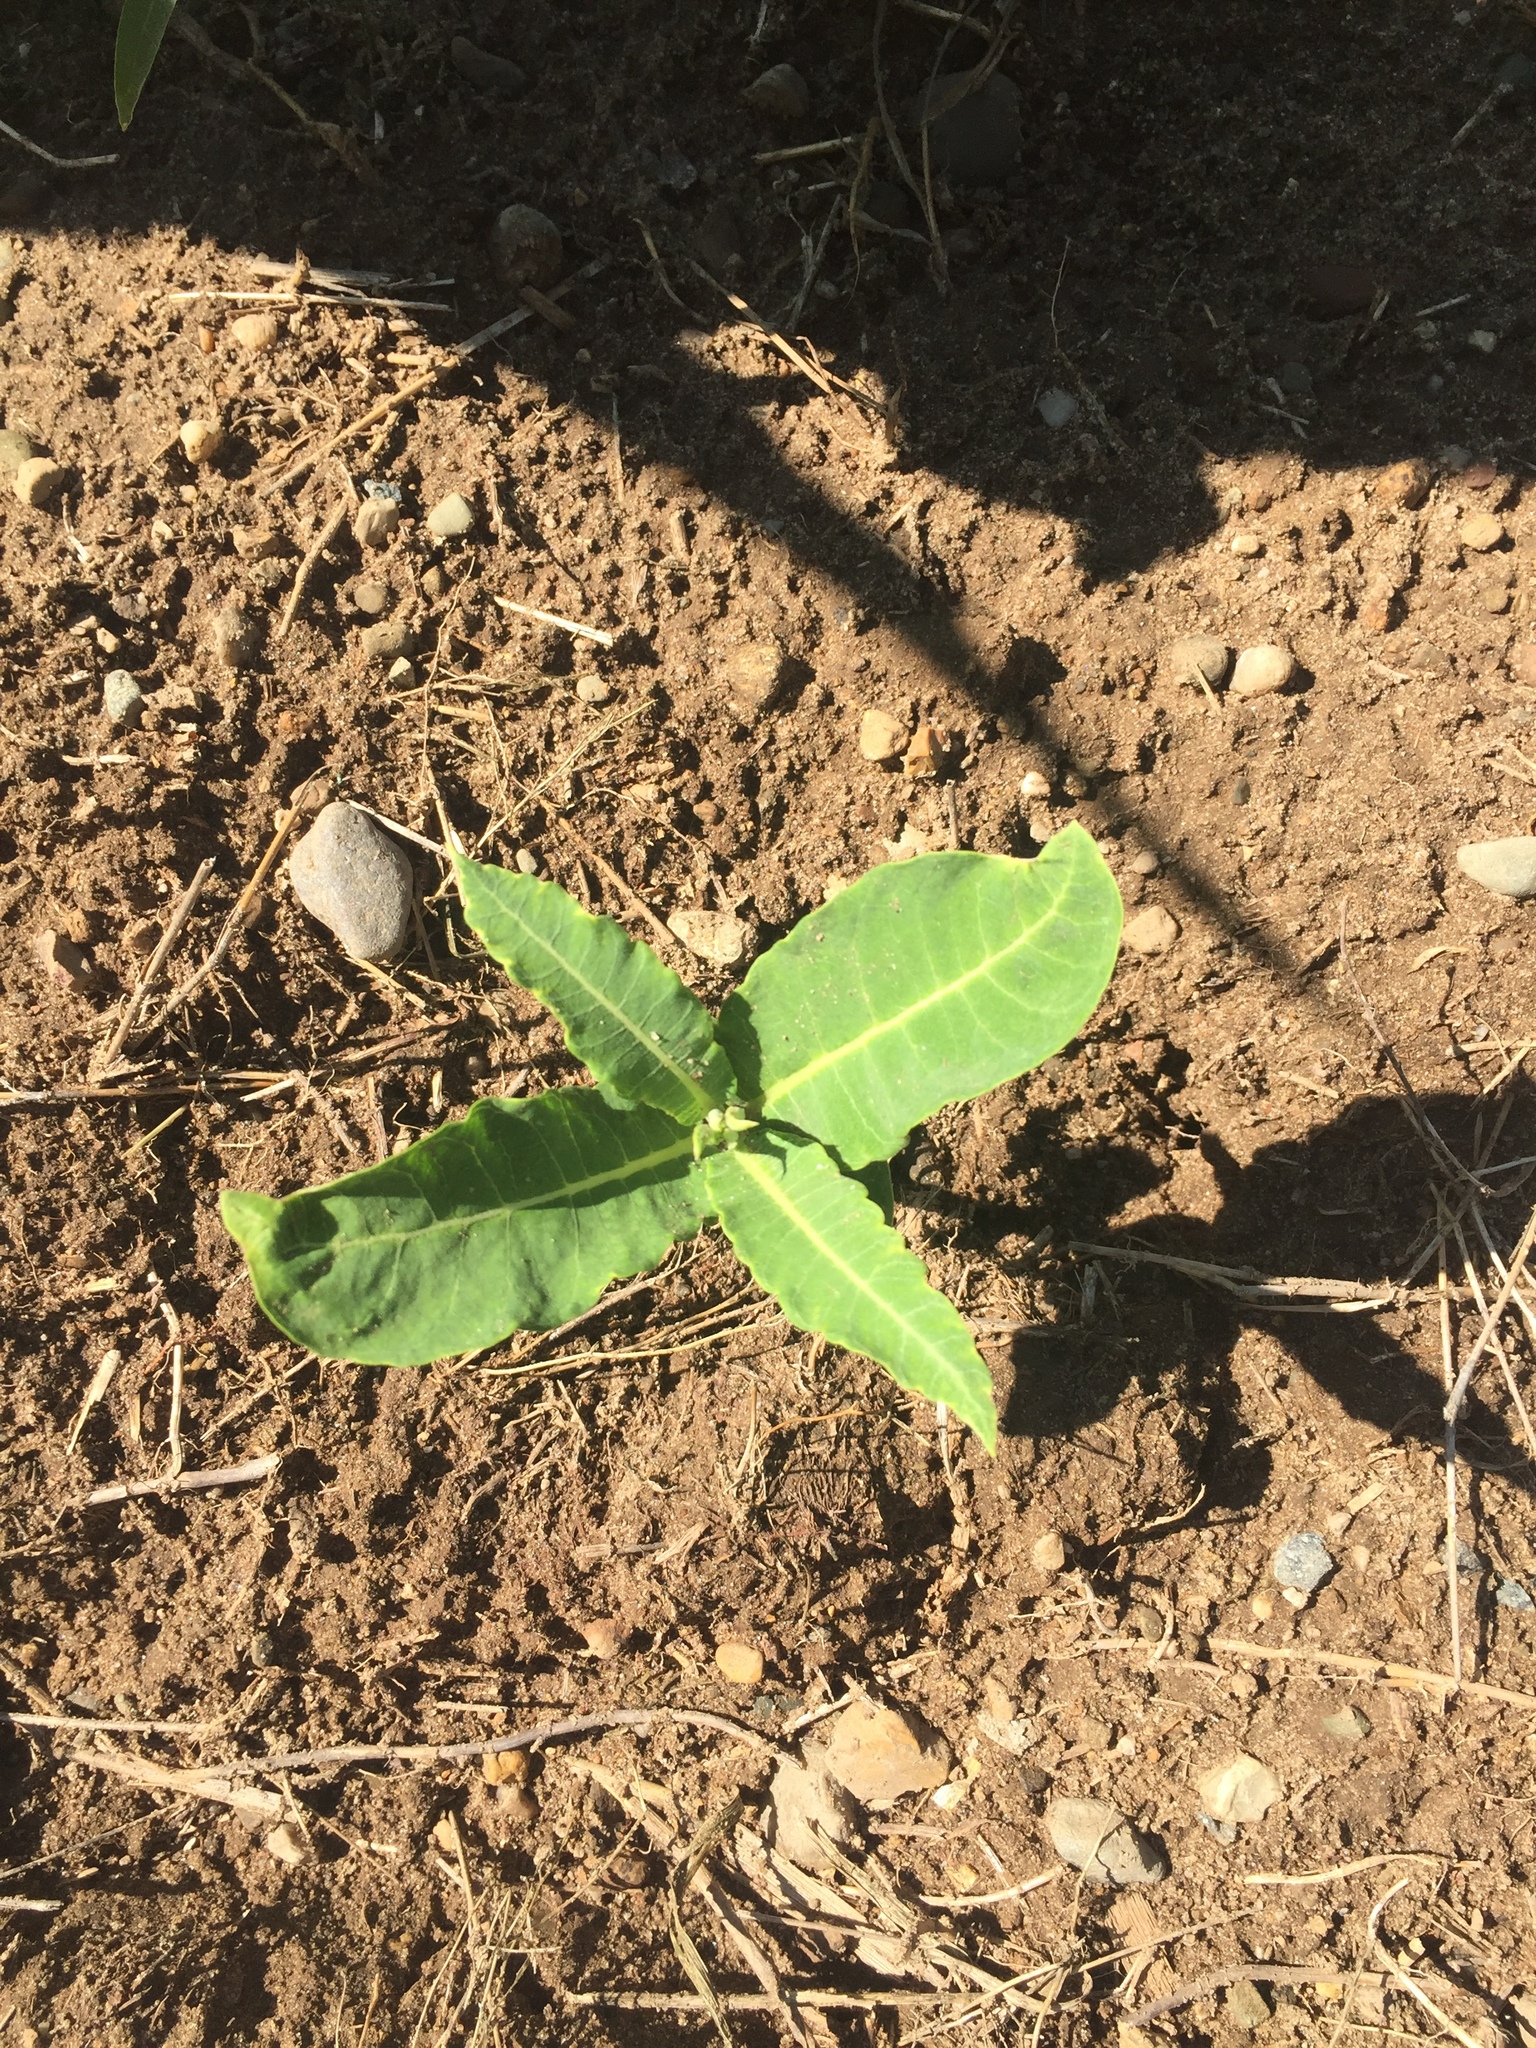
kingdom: Plantae
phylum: Tracheophyta
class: Magnoliopsida
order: Gentianales
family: Apocynaceae
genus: Asclepias
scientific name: Asclepias syriaca
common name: Common milkweed
